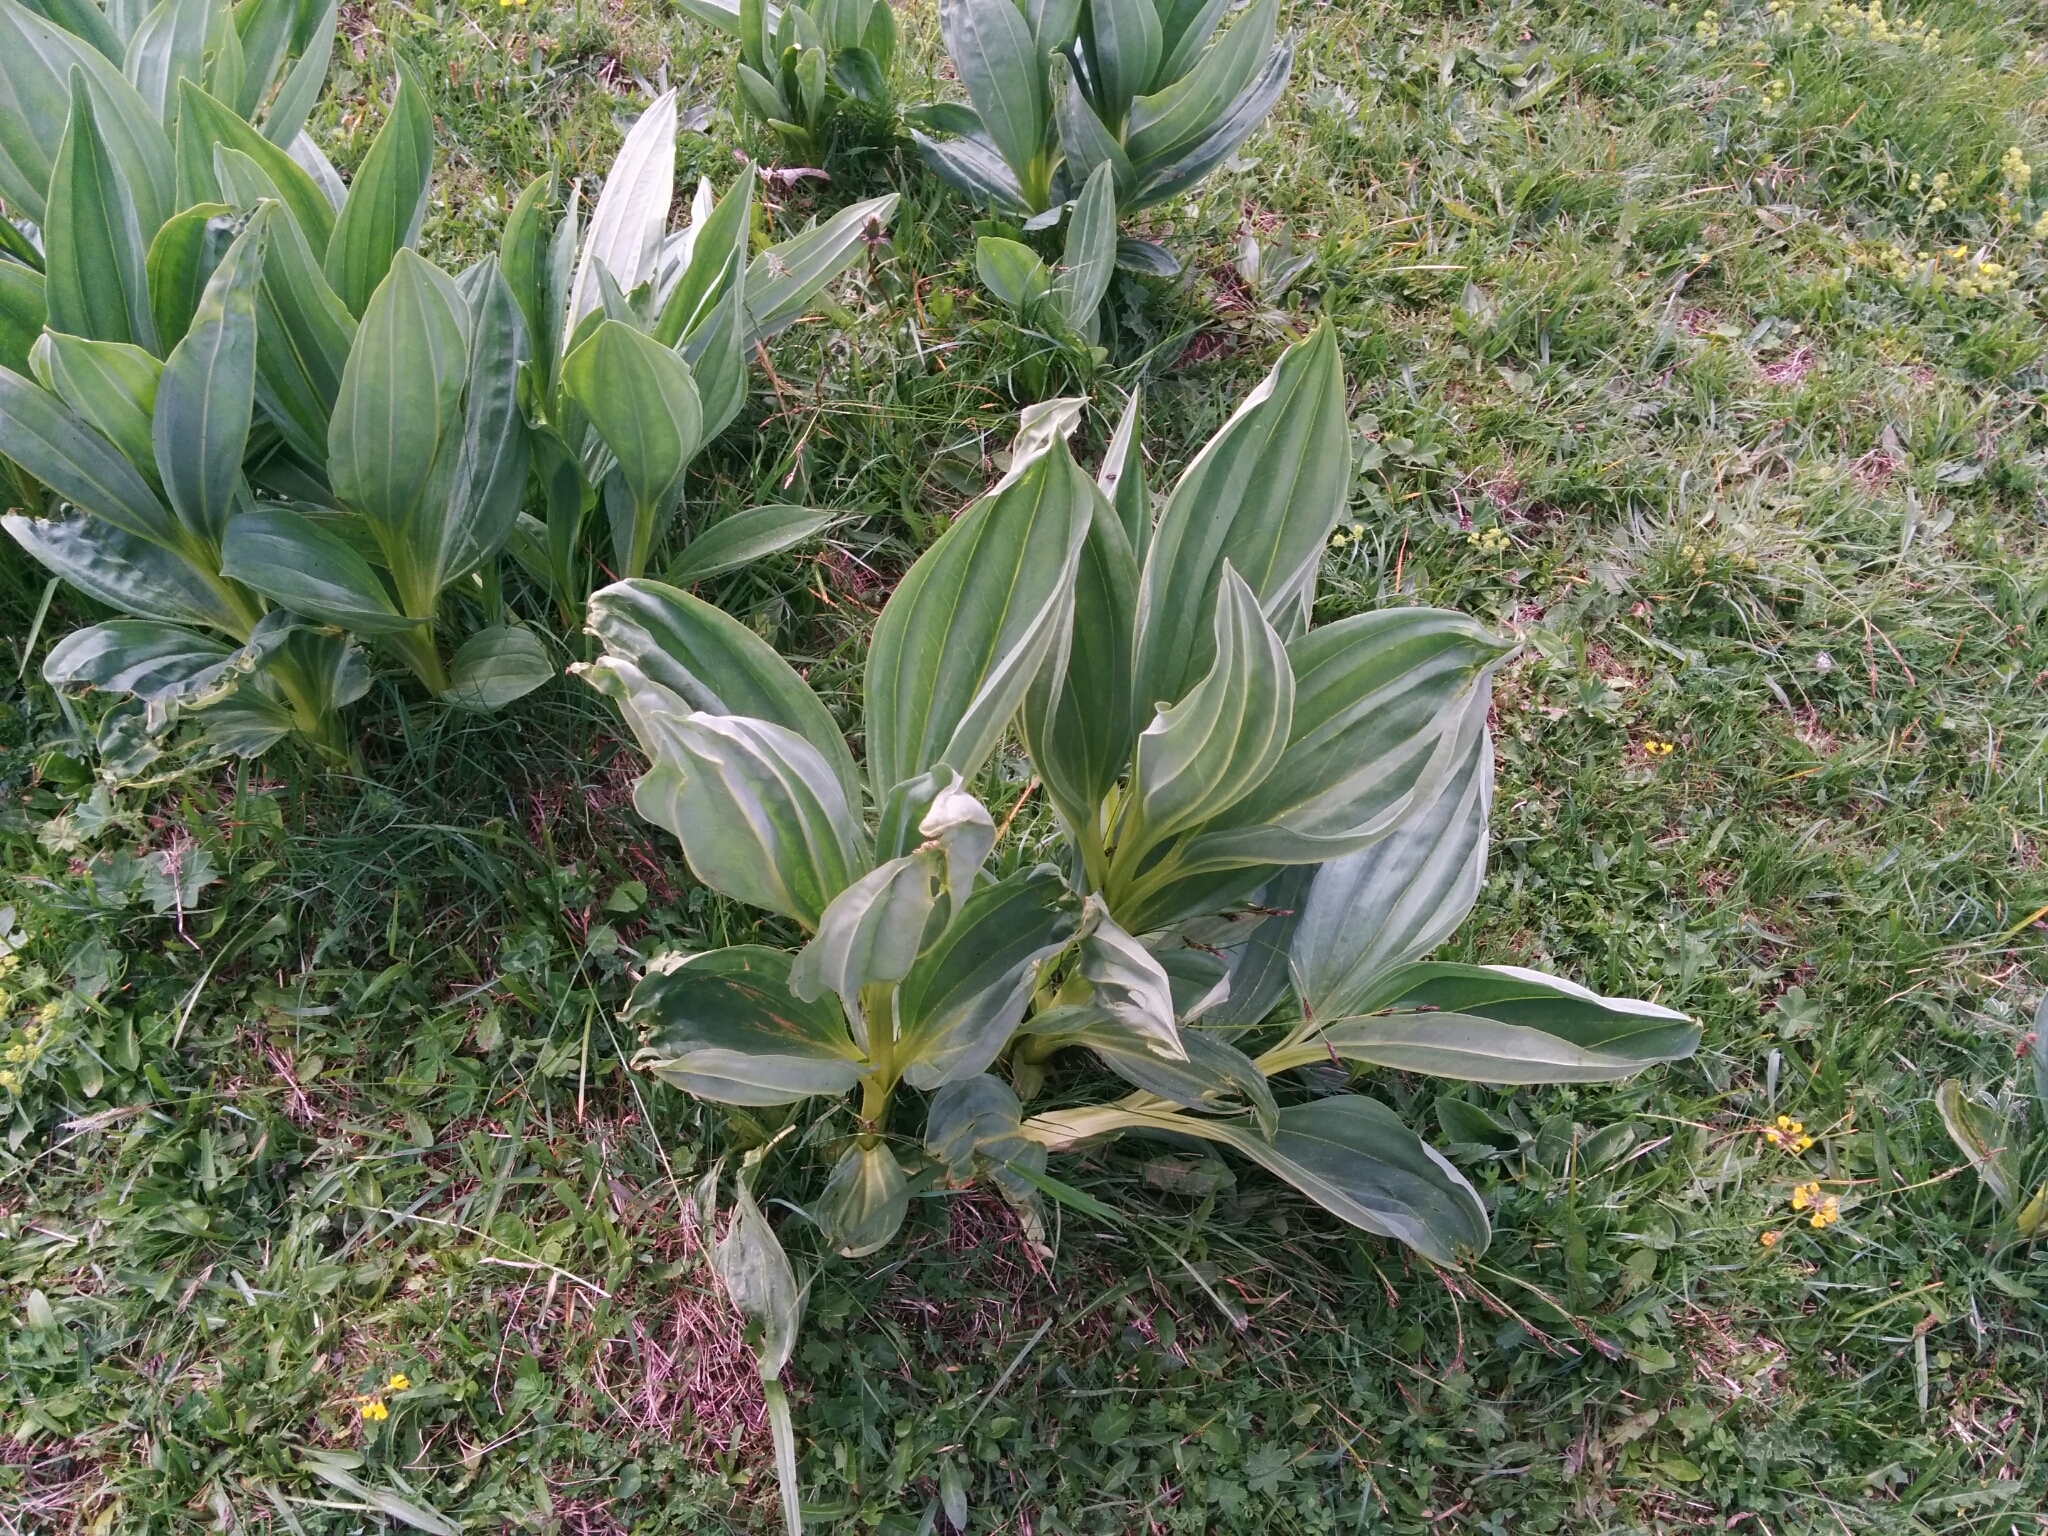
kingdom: Plantae
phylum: Tracheophyta
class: Magnoliopsida
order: Gentianales
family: Gentianaceae
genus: Gentiana
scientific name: Gentiana lutea
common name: Great yellow gentian
